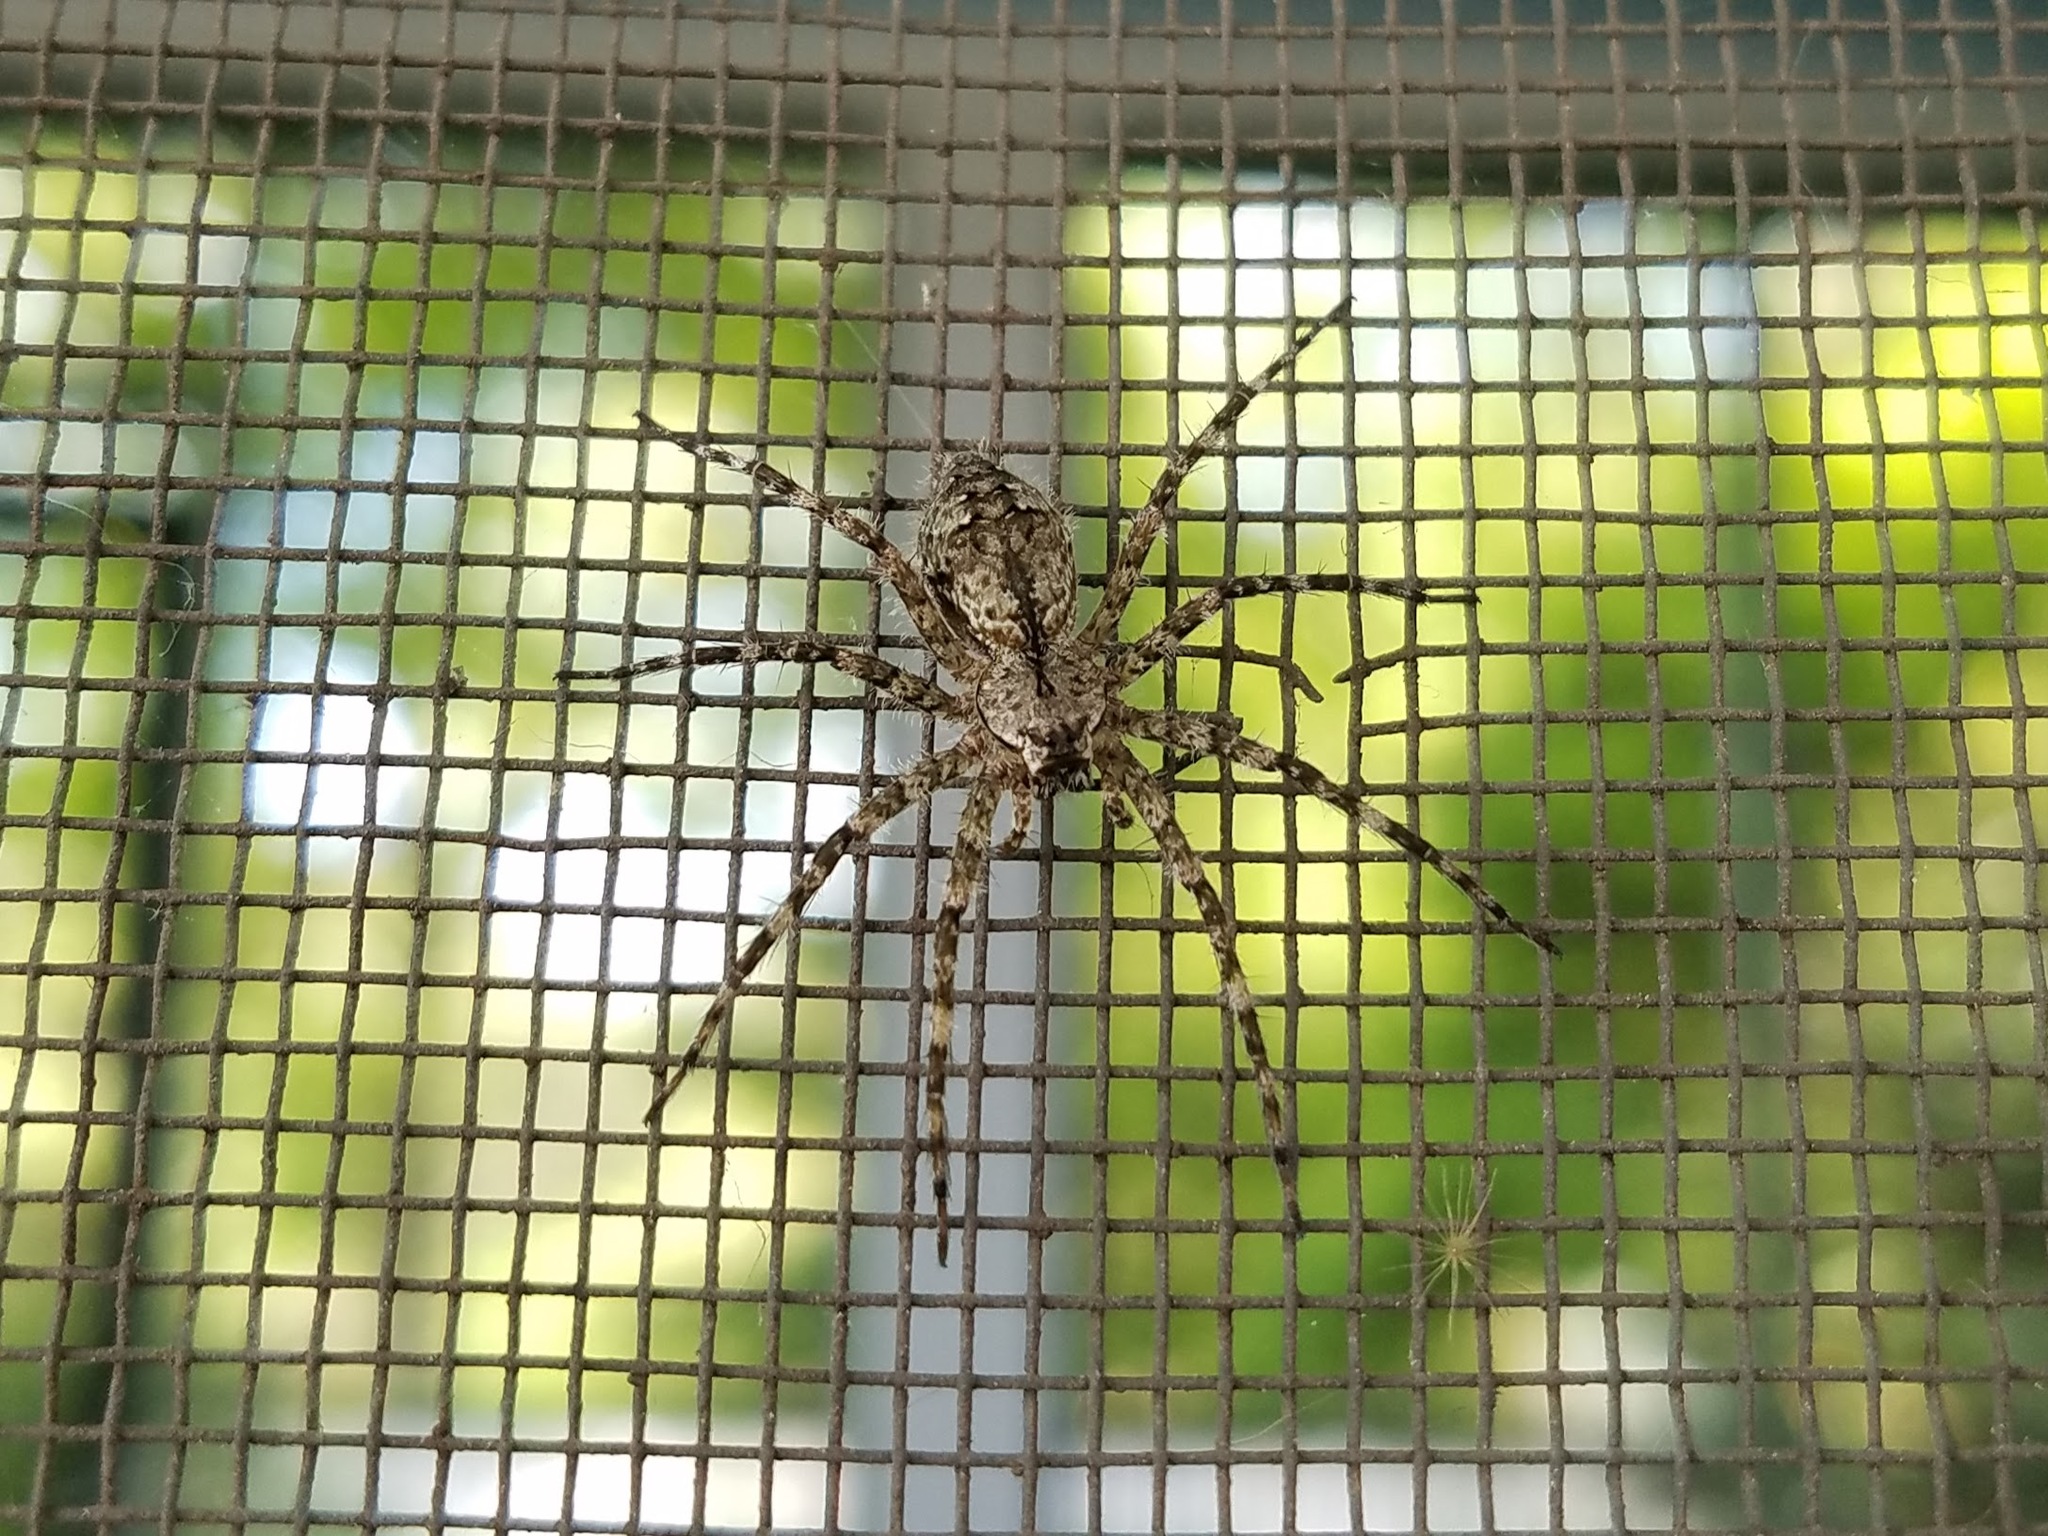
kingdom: Animalia
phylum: Arthropoda
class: Arachnida
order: Araneae
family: Pisauridae
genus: Dolomedes
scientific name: Dolomedes albineus
